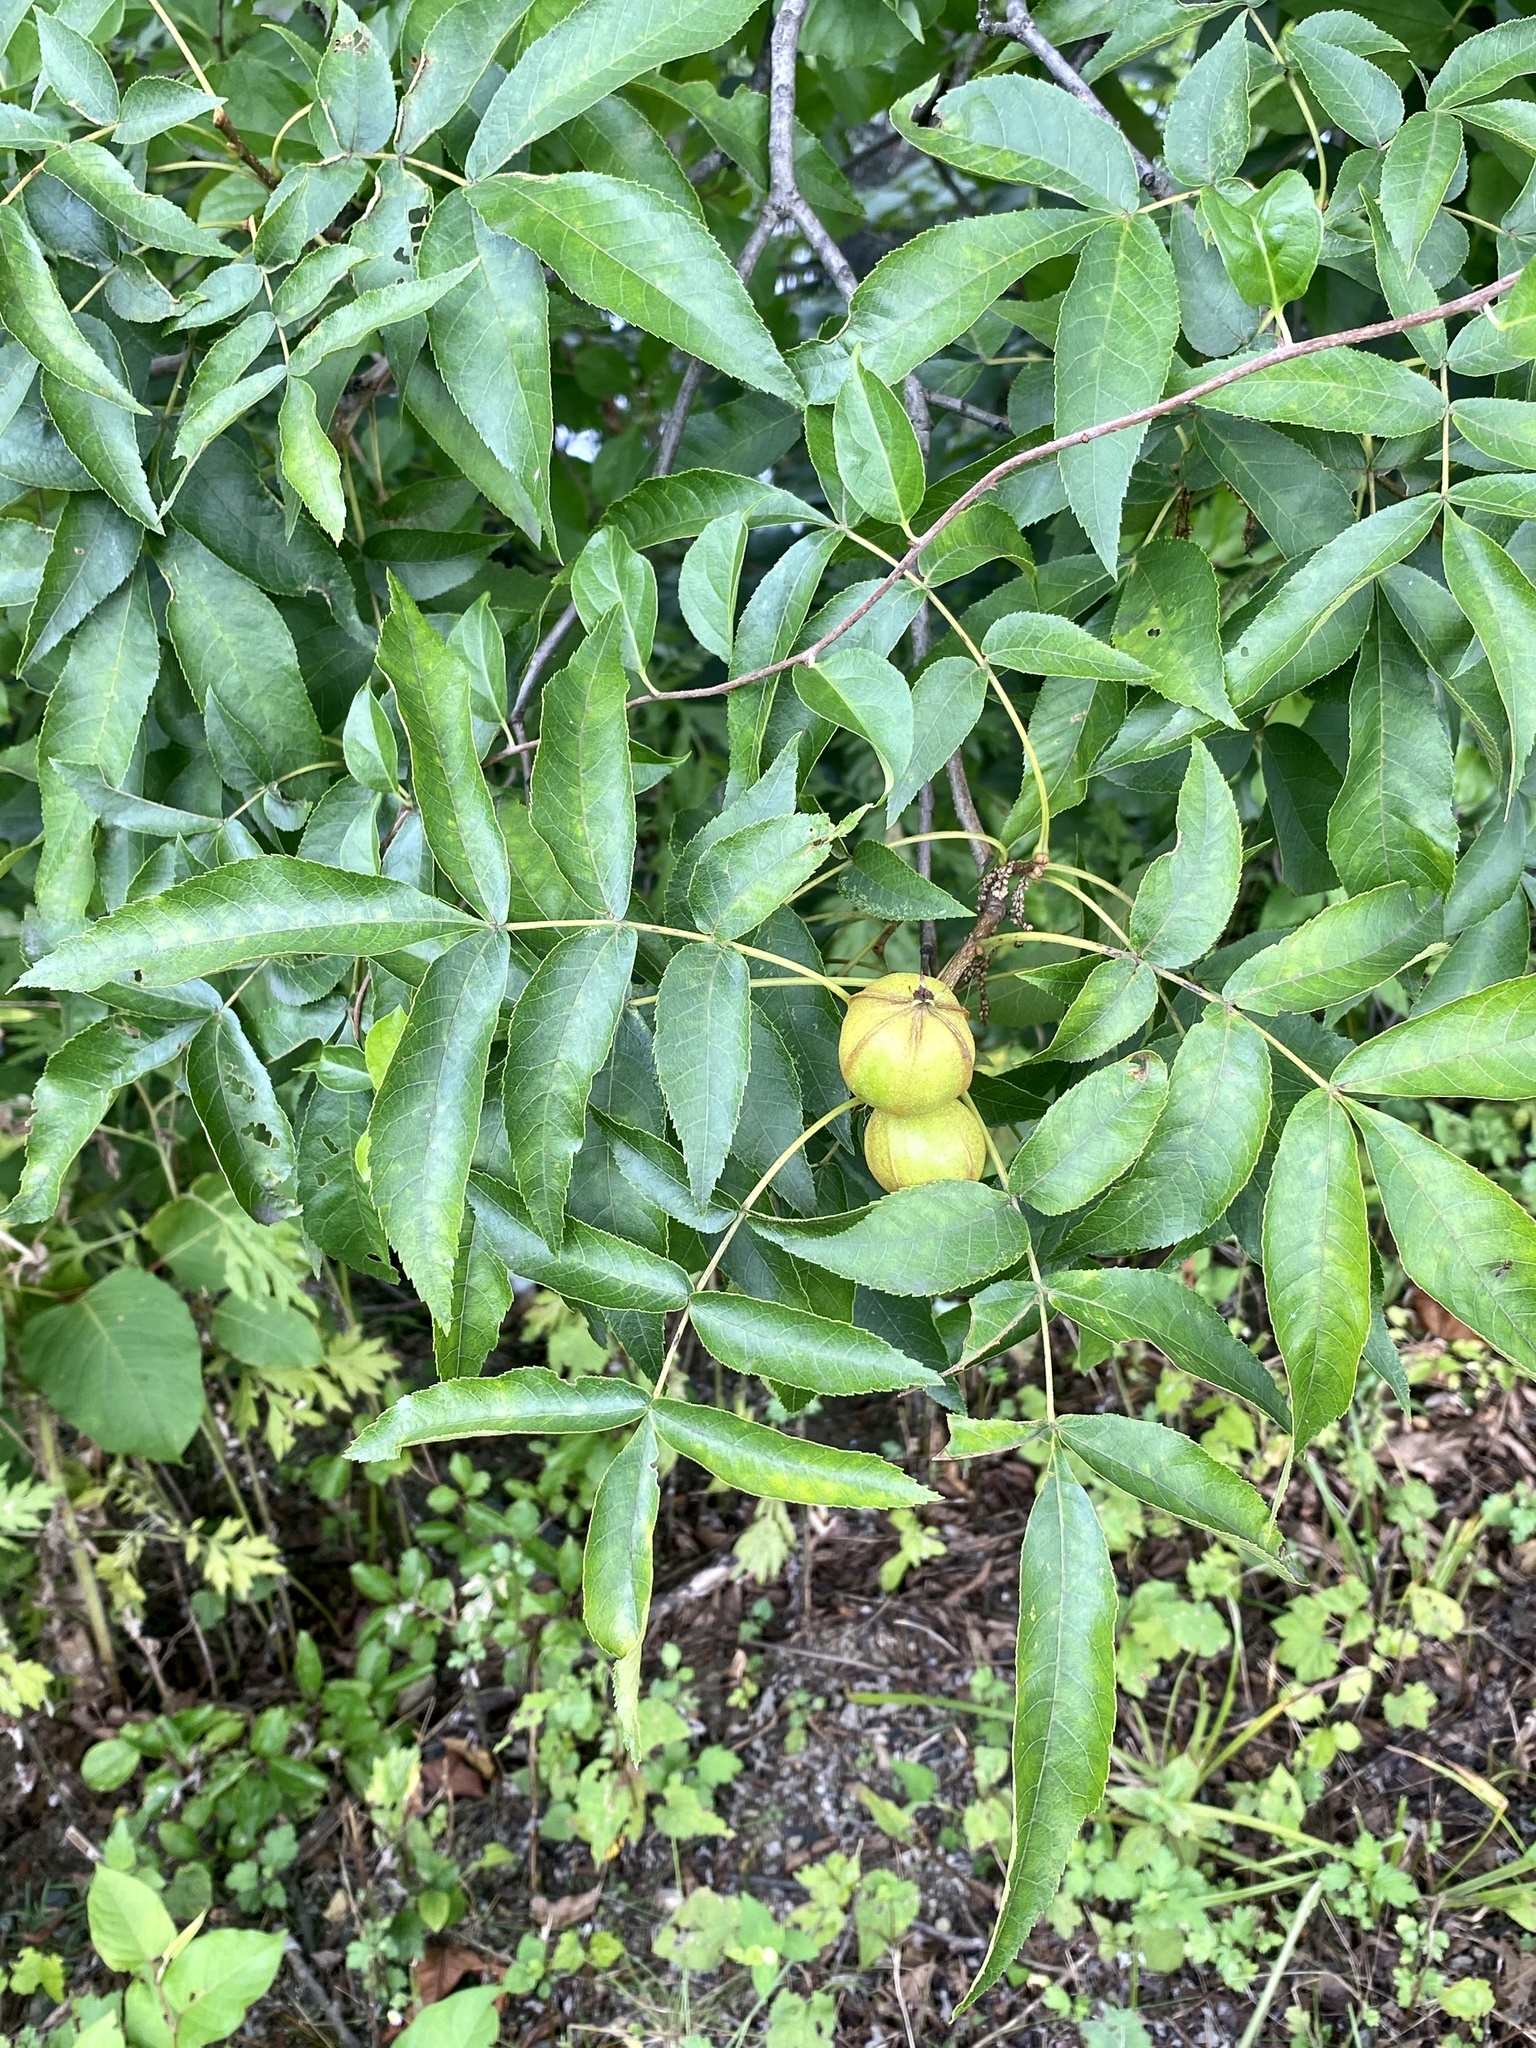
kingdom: Plantae
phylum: Tracheophyta
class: Magnoliopsida
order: Fagales
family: Juglandaceae
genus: Carya
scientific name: Carya cordiformis
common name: Bitternut hickory
